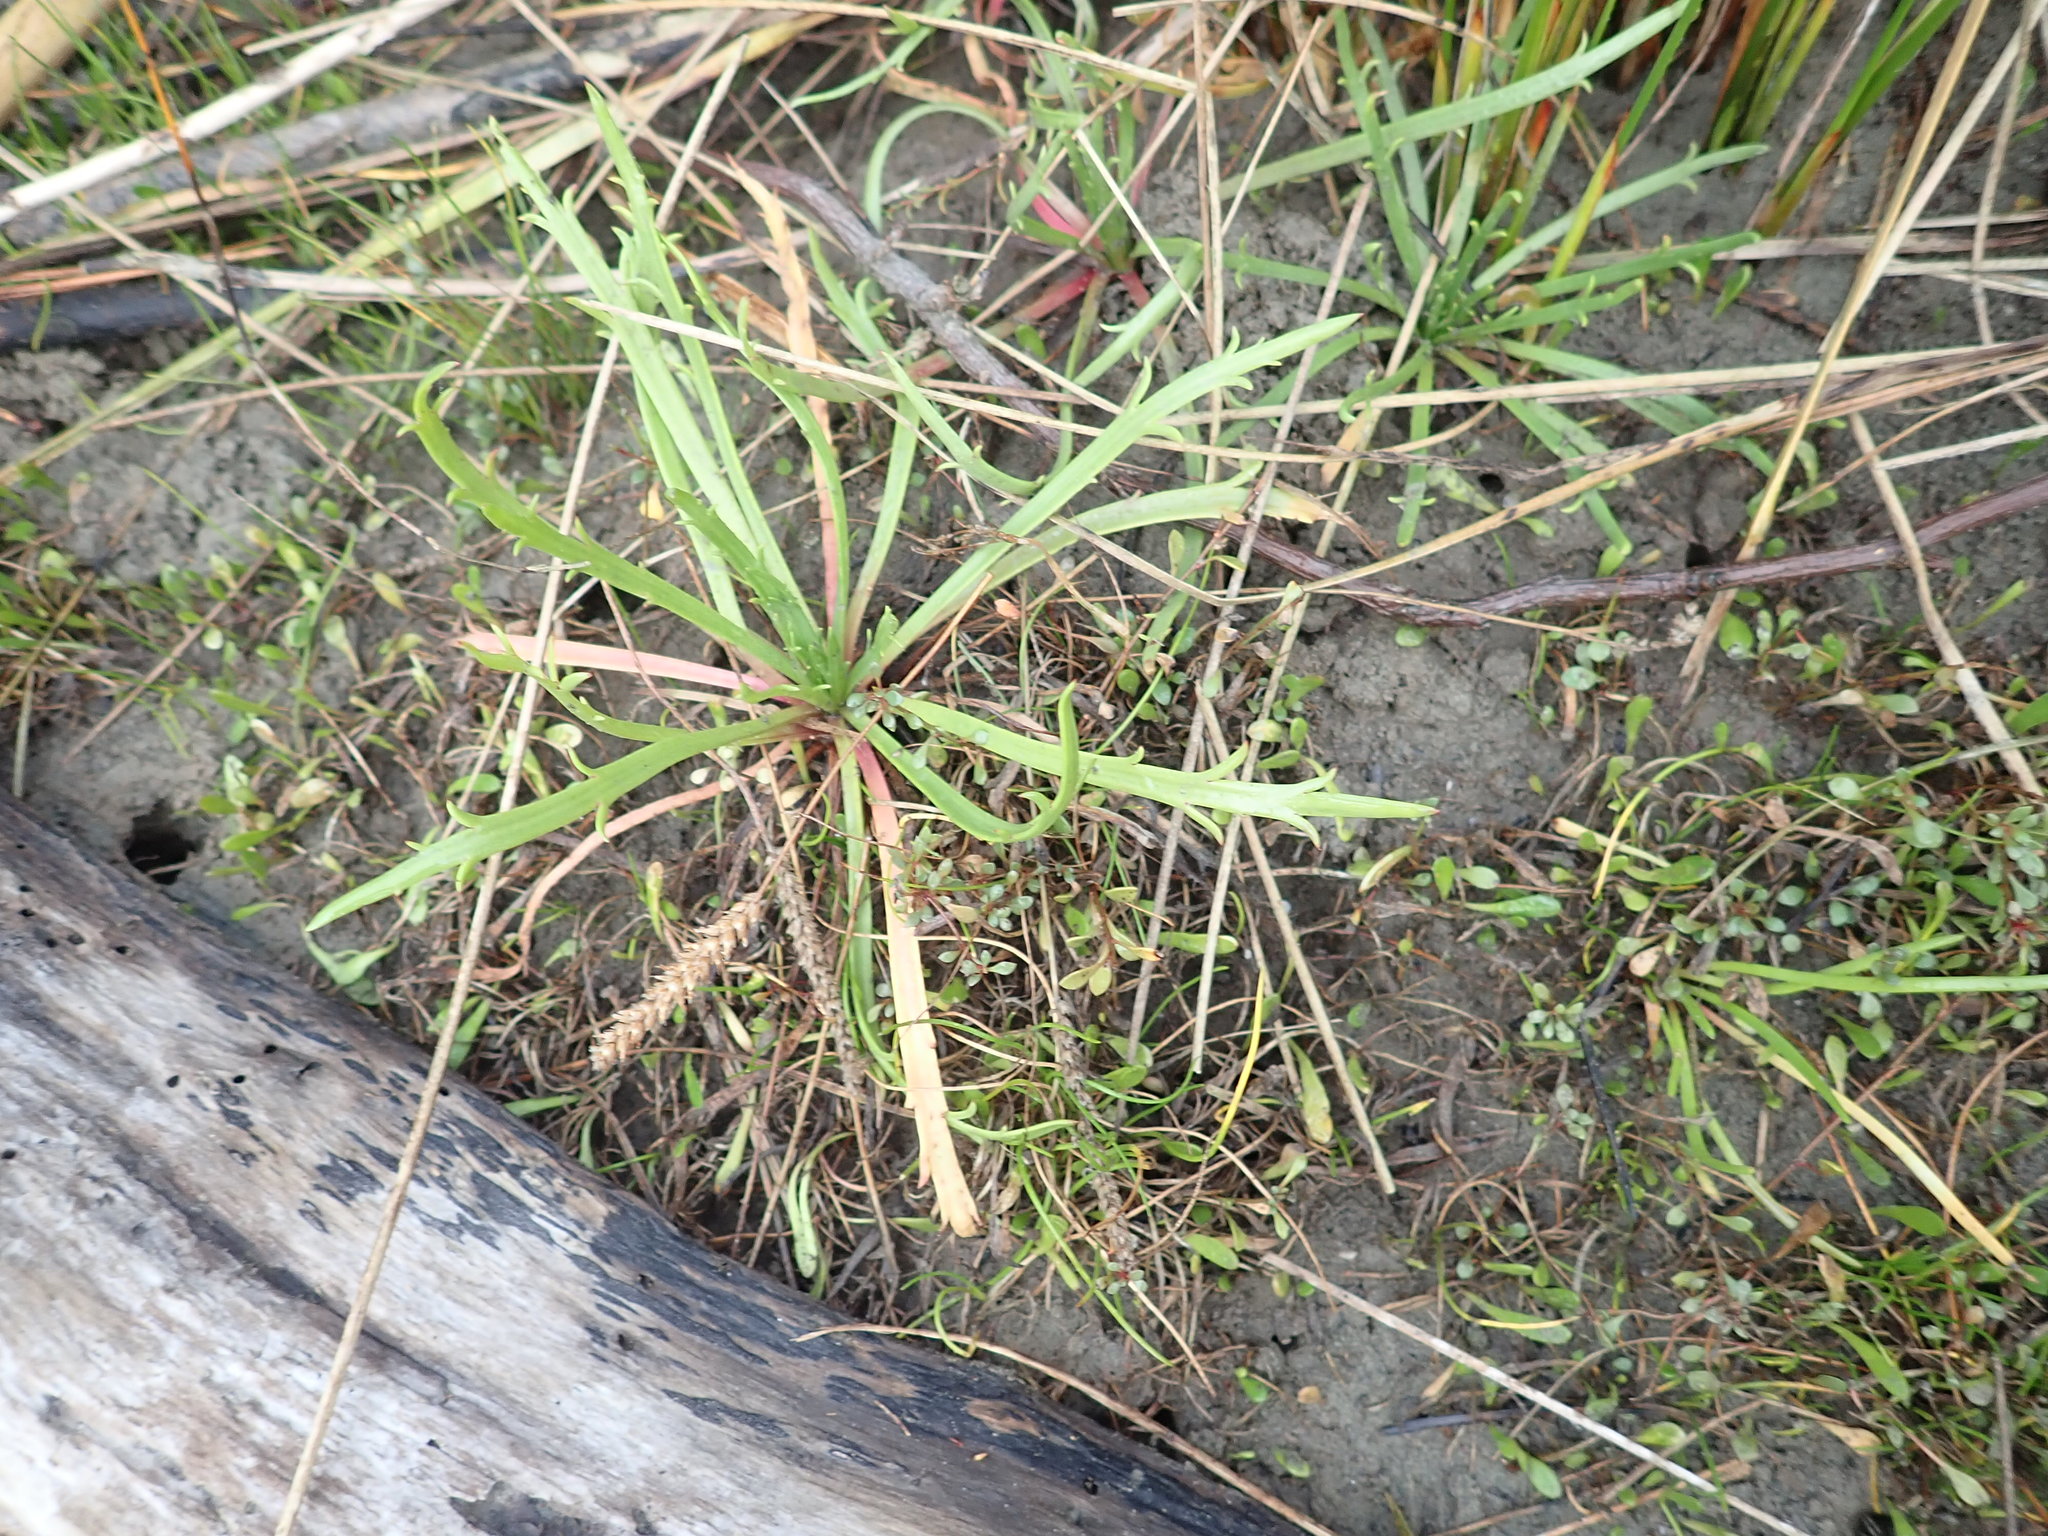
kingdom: Plantae
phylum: Tracheophyta
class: Magnoliopsida
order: Lamiales
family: Plantaginaceae
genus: Plantago
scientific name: Plantago coronopus
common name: Buck's-horn plantain
